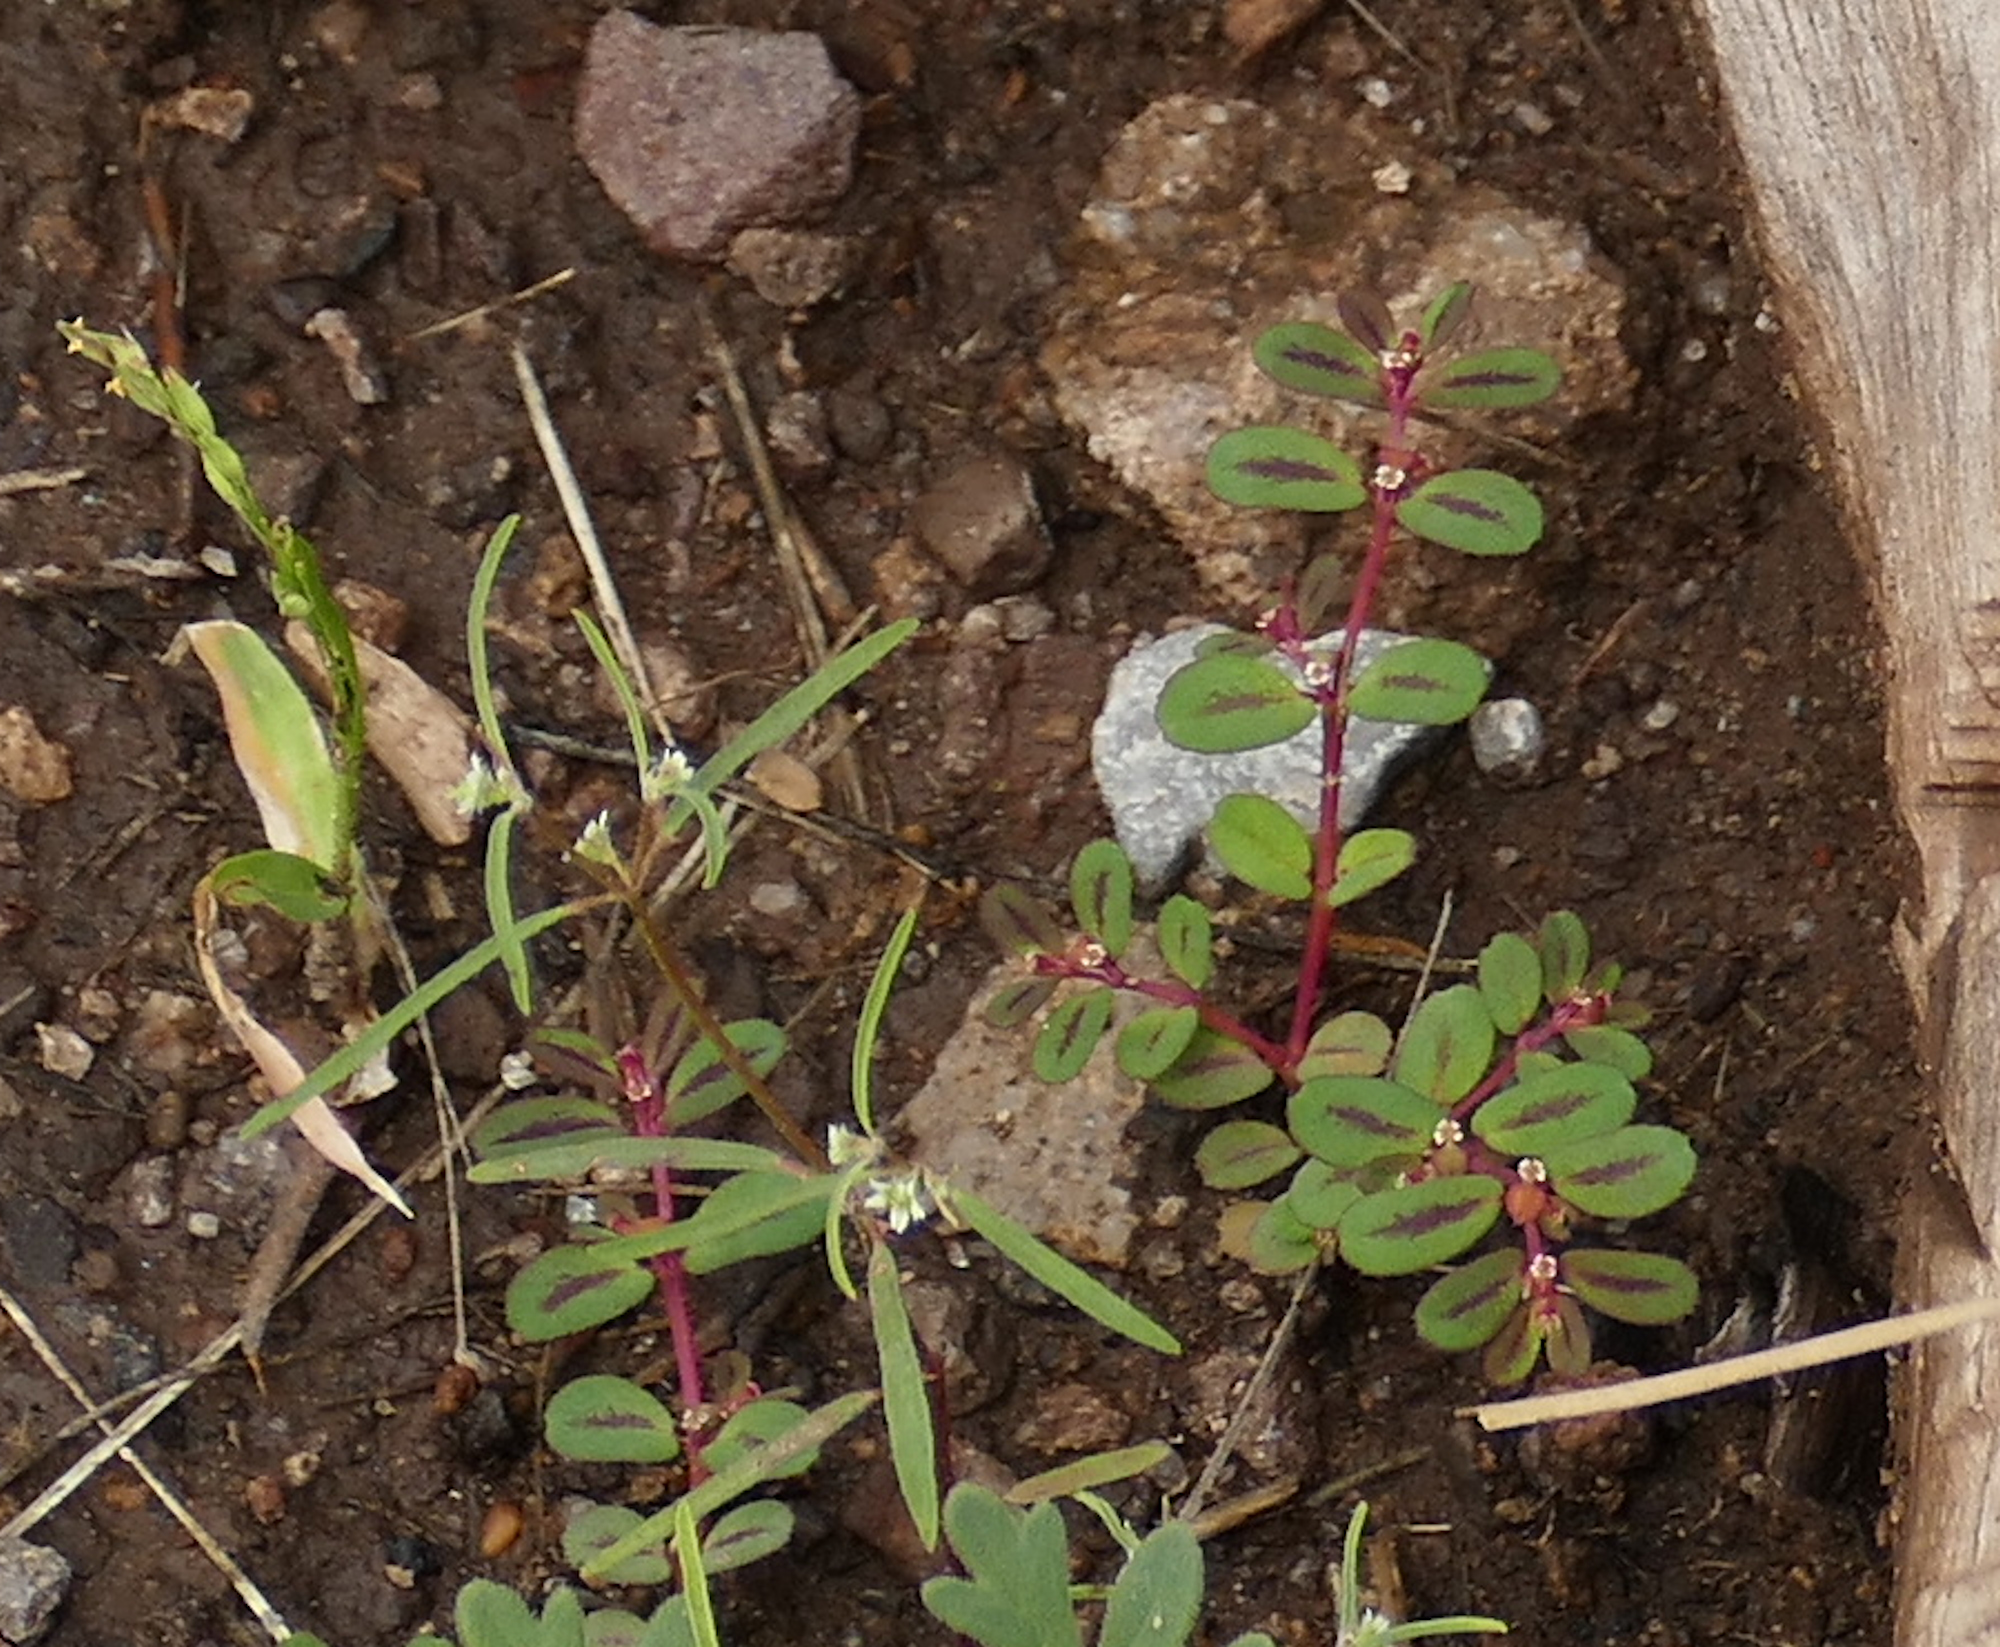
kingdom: Plantae
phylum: Tracheophyta
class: Magnoliopsida
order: Malpighiales
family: Euphorbiaceae
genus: Euphorbia
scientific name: Euphorbia serpillifolia
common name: Thyme-leaf spurge
